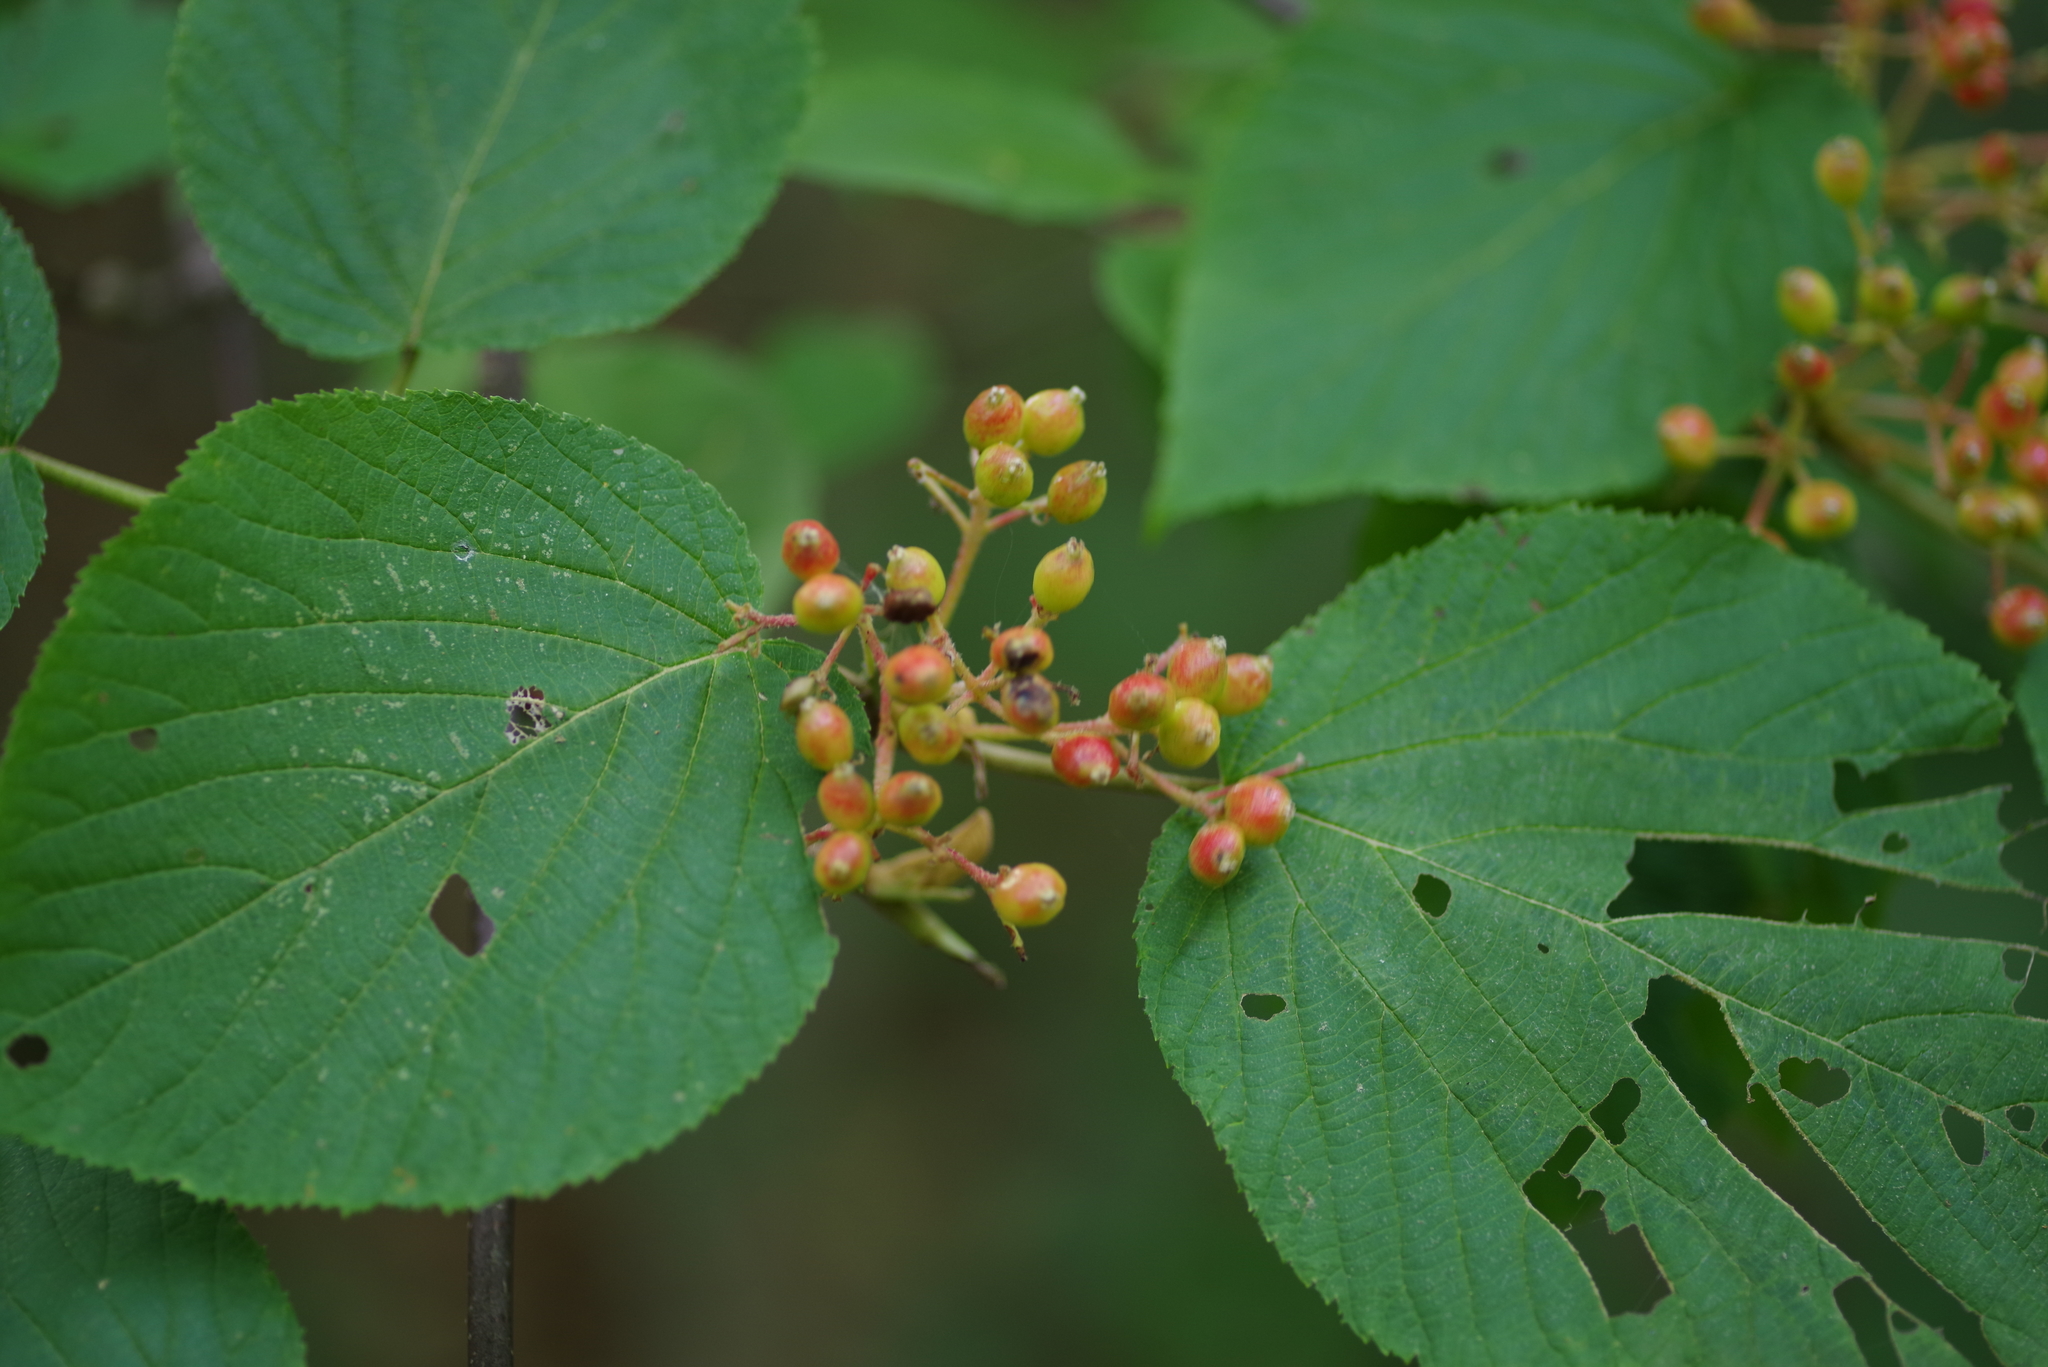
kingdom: Plantae
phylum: Tracheophyta
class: Magnoliopsida
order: Dipsacales
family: Viburnaceae
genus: Viburnum
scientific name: Viburnum lantanoides
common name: Hobblebush
